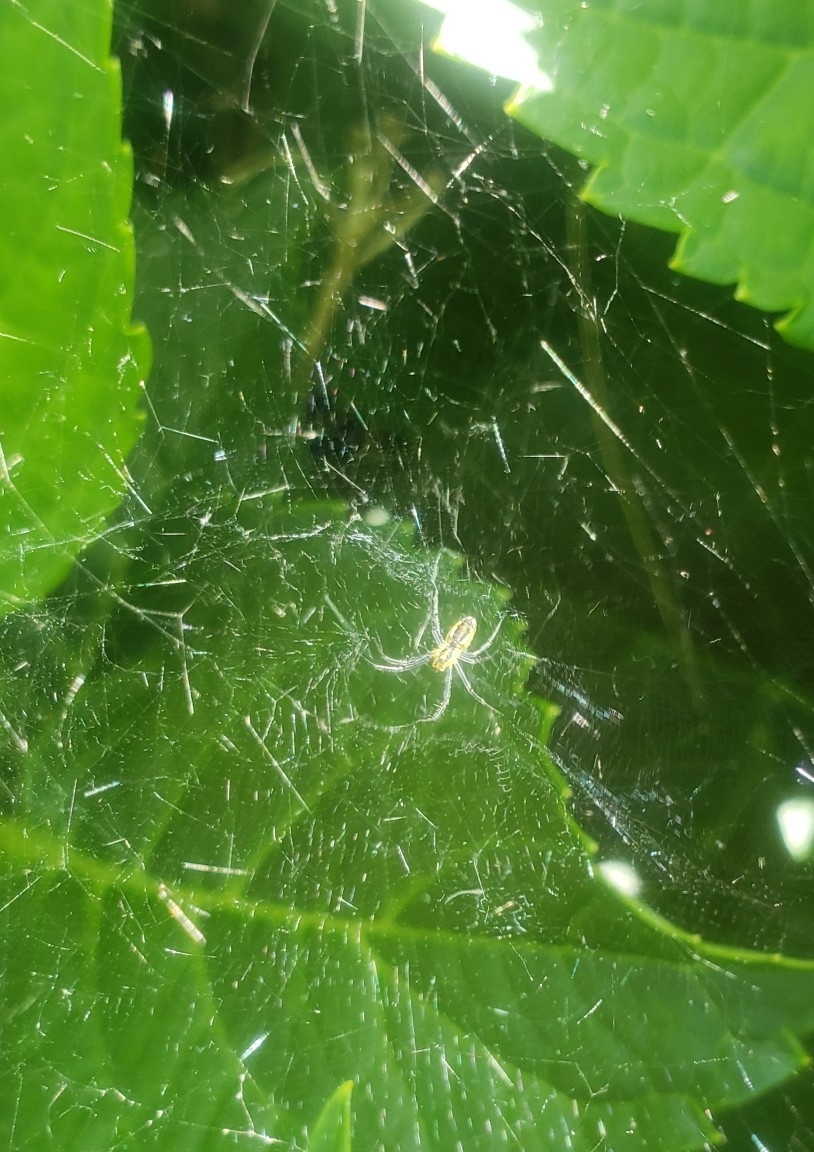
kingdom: Animalia
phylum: Arthropoda
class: Arachnida
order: Araneae
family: Araneidae
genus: Mecynogea
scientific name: Mecynogea lemniscata
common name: Orb weavers
